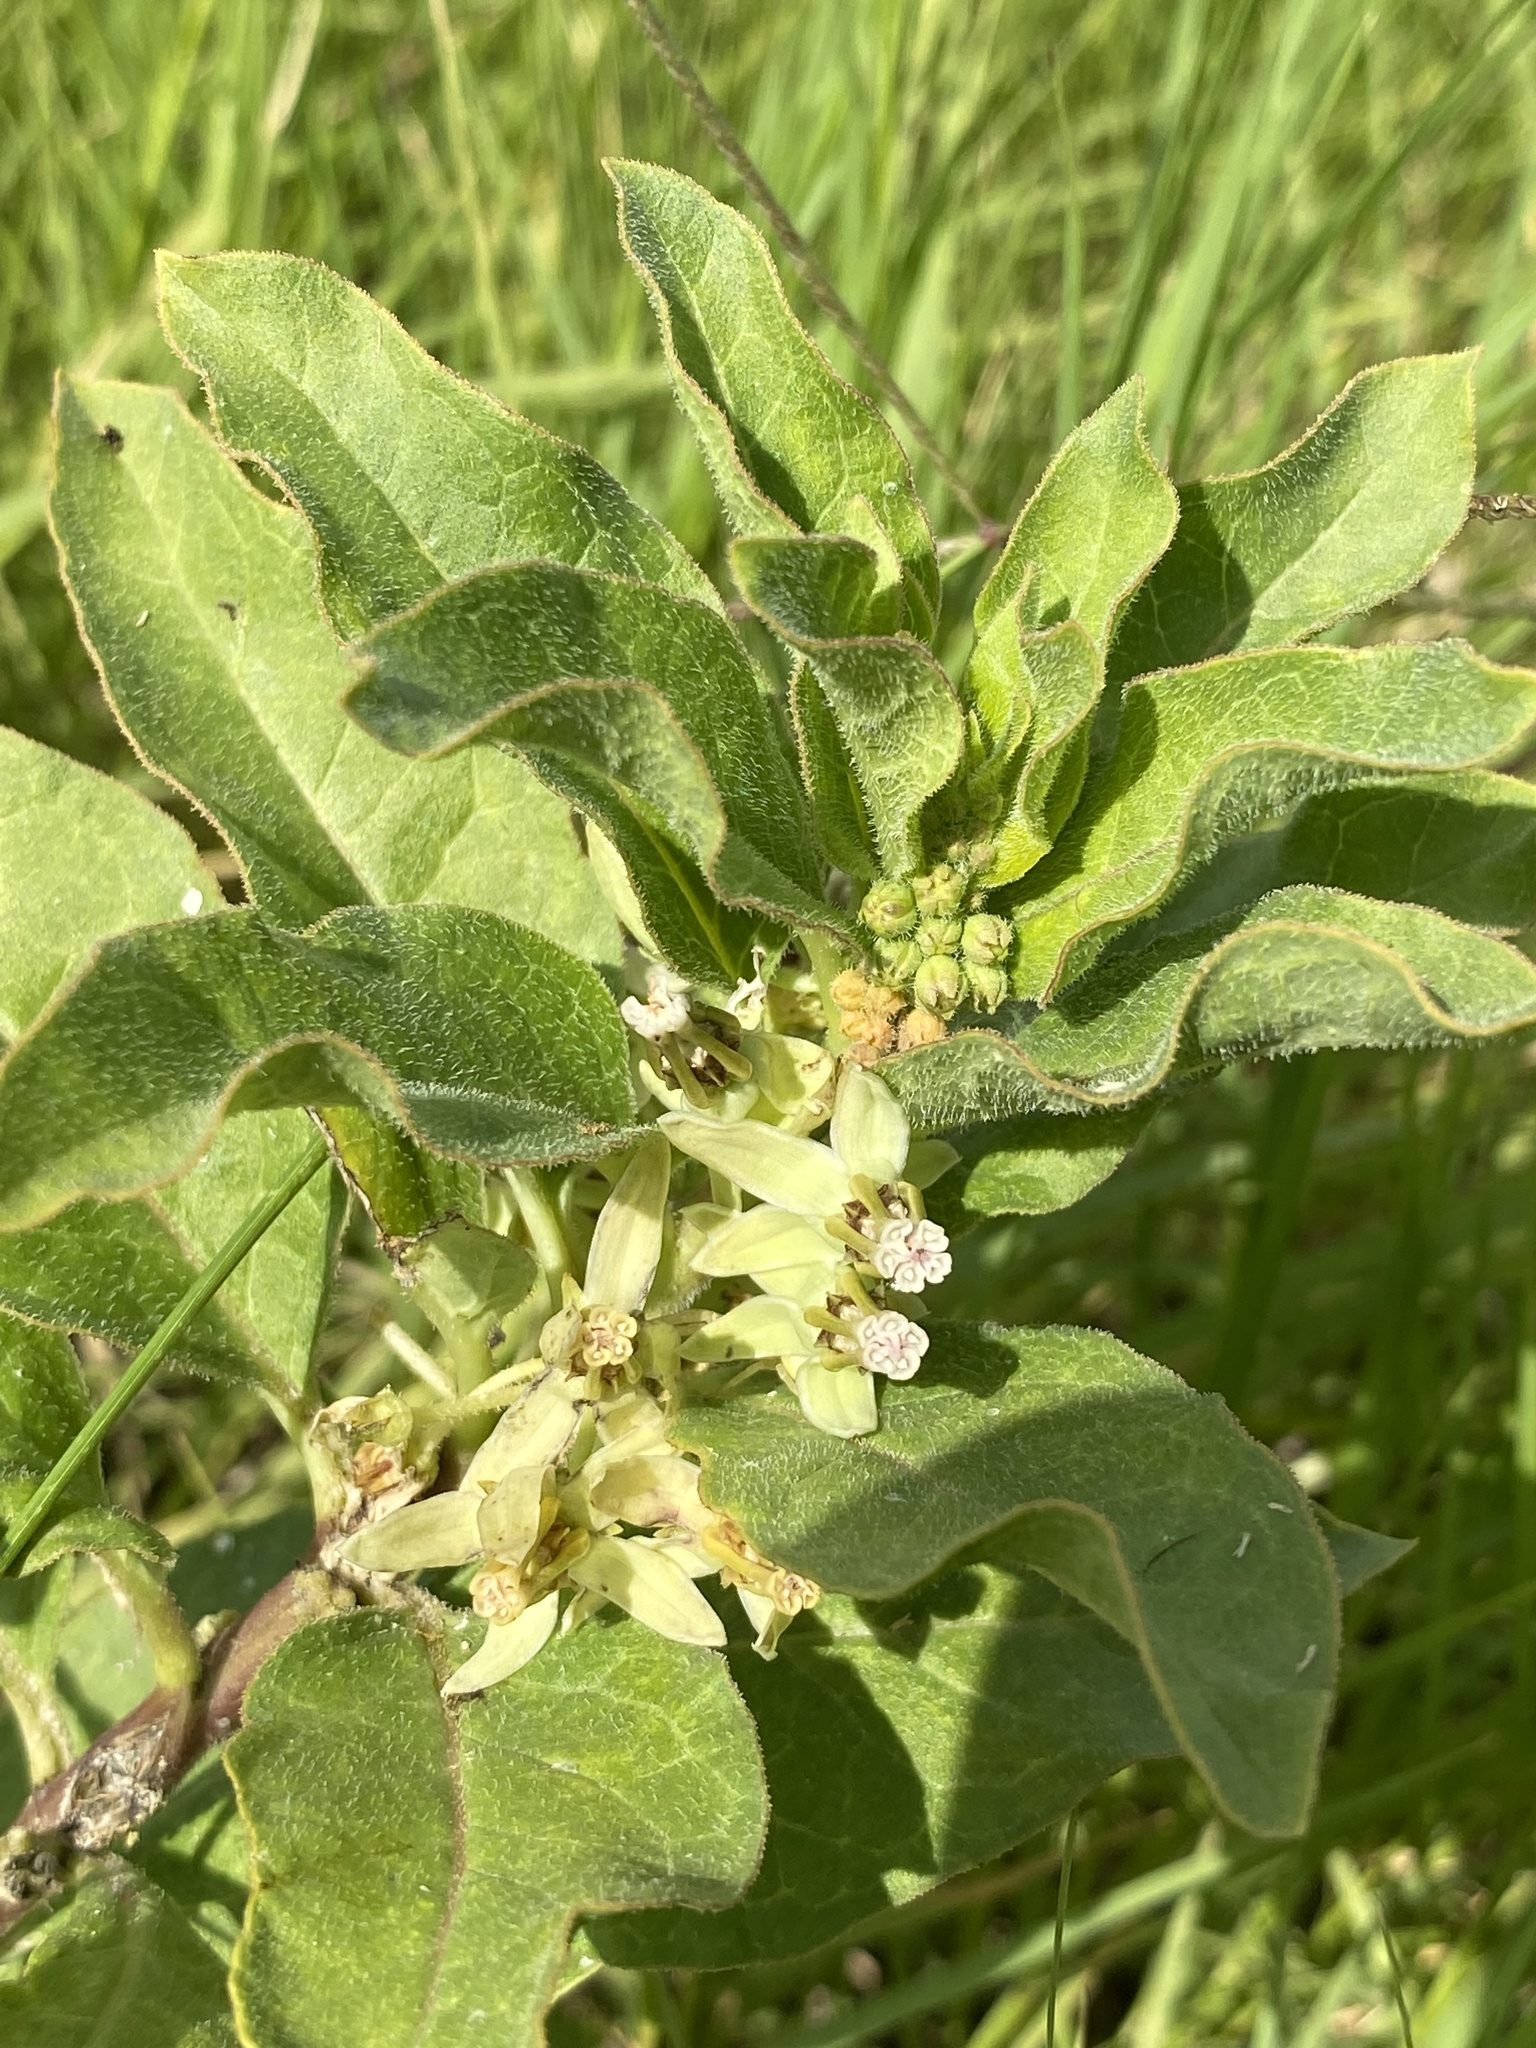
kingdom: Plantae
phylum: Tracheophyta
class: Magnoliopsida
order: Gentianales
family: Apocynaceae
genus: Asclepias
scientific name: Asclepias oenotheroides
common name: Zizotes milkweed
